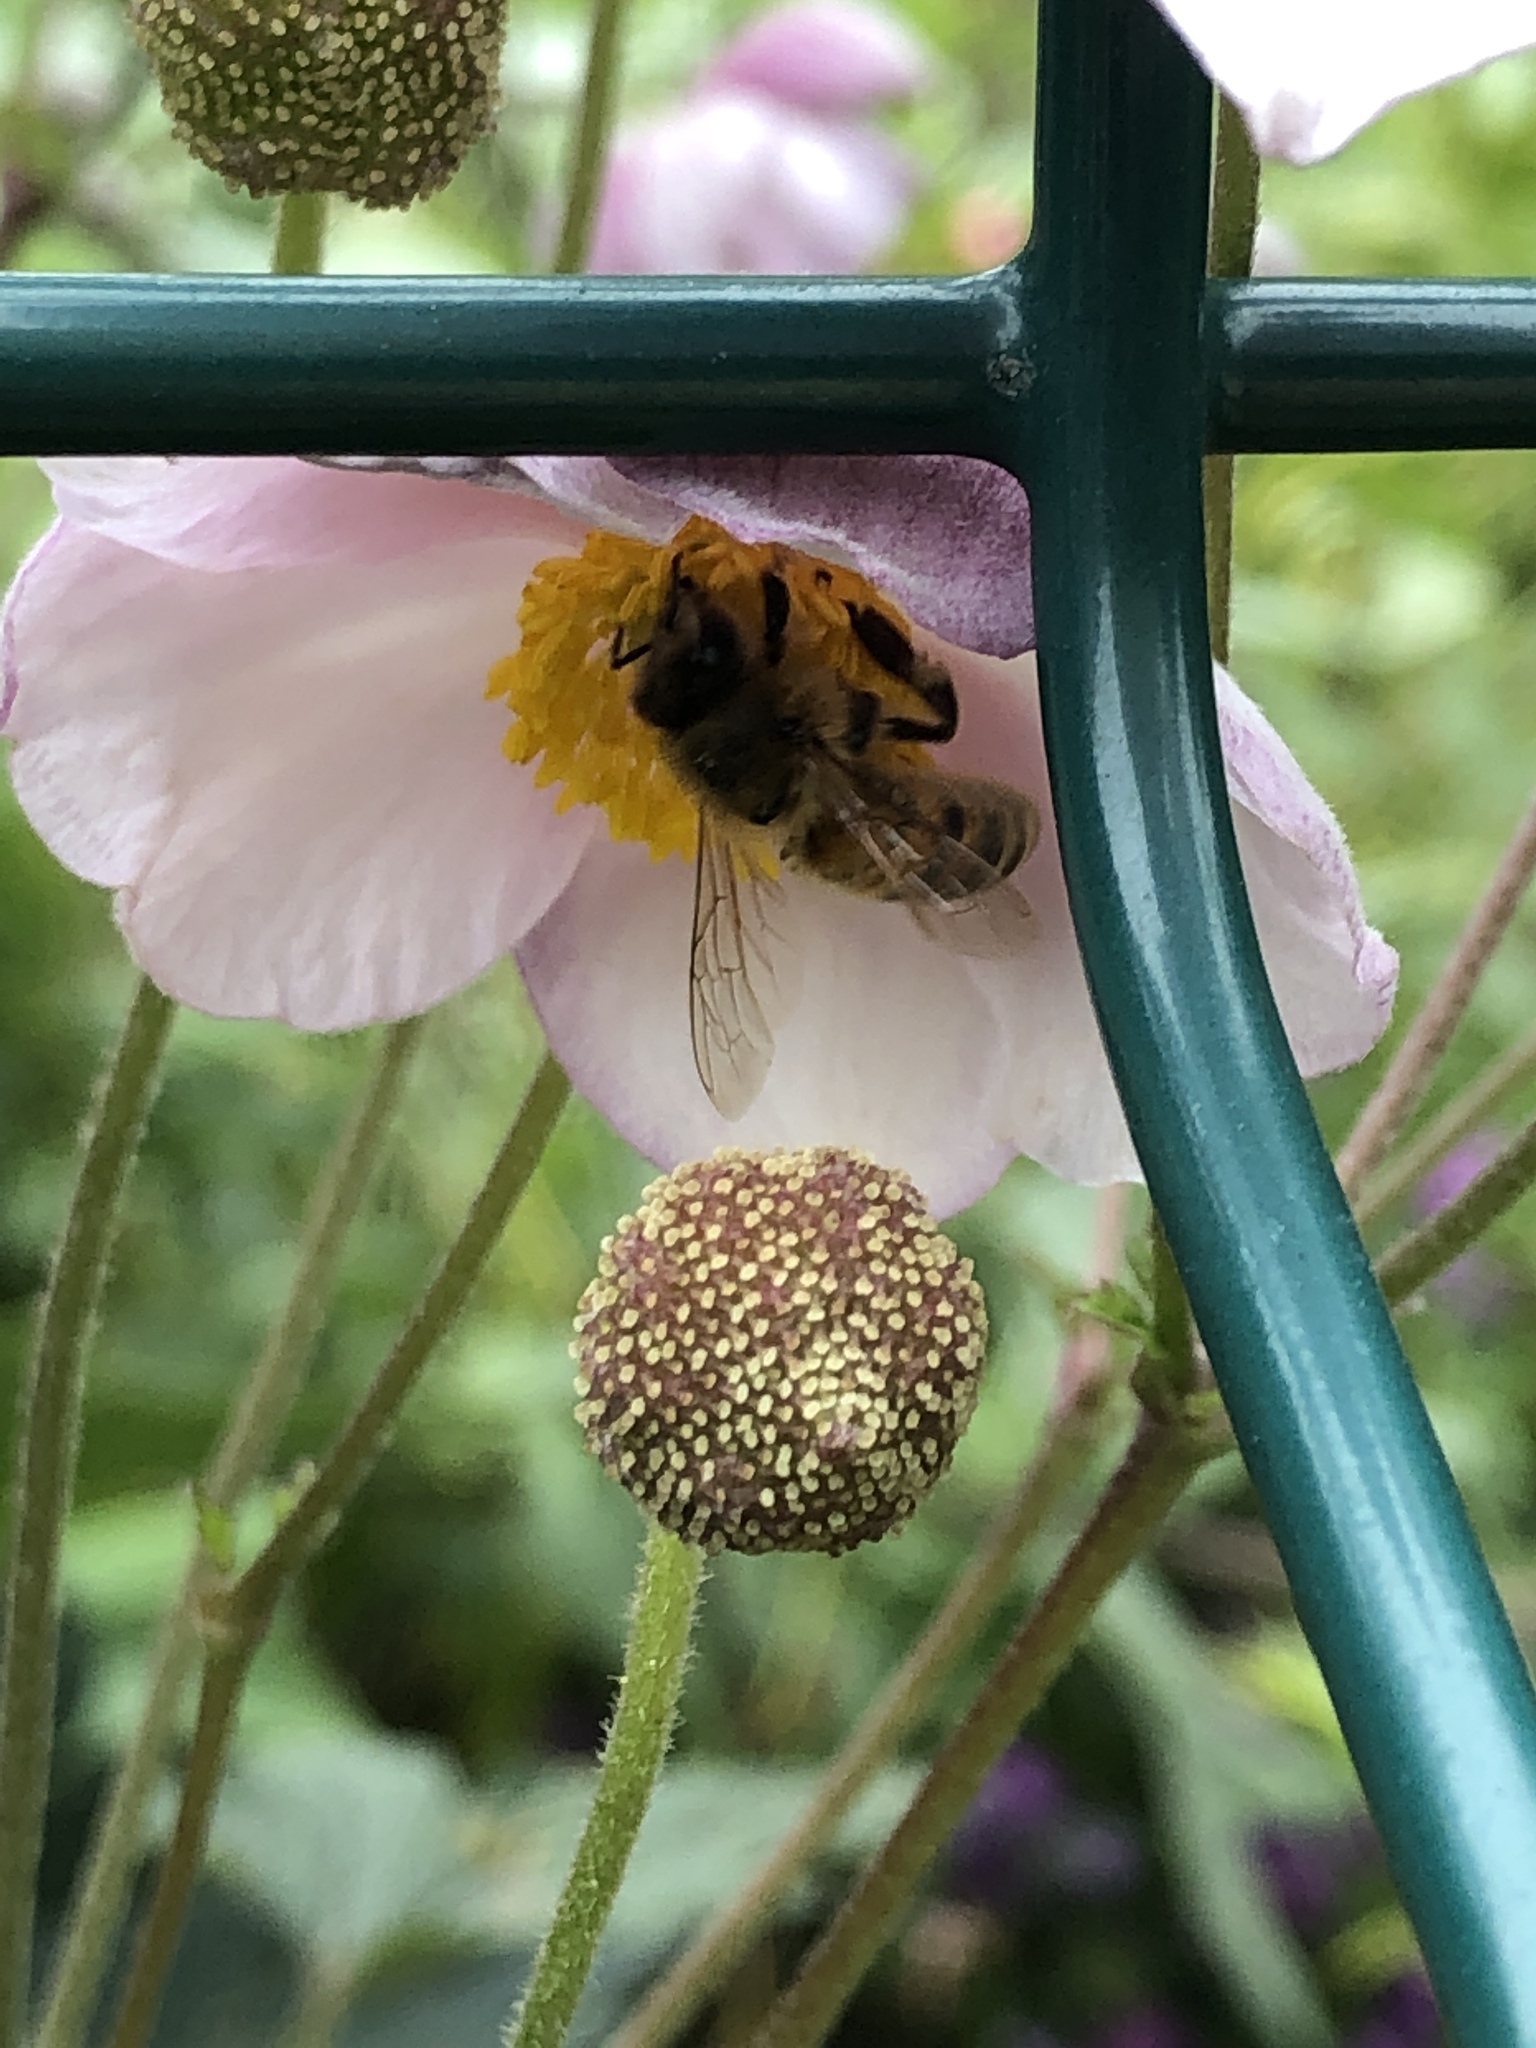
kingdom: Animalia
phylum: Arthropoda
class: Insecta
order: Hymenoptera
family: Apidae
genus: Apis
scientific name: Apis mellifera
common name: Honey bee
